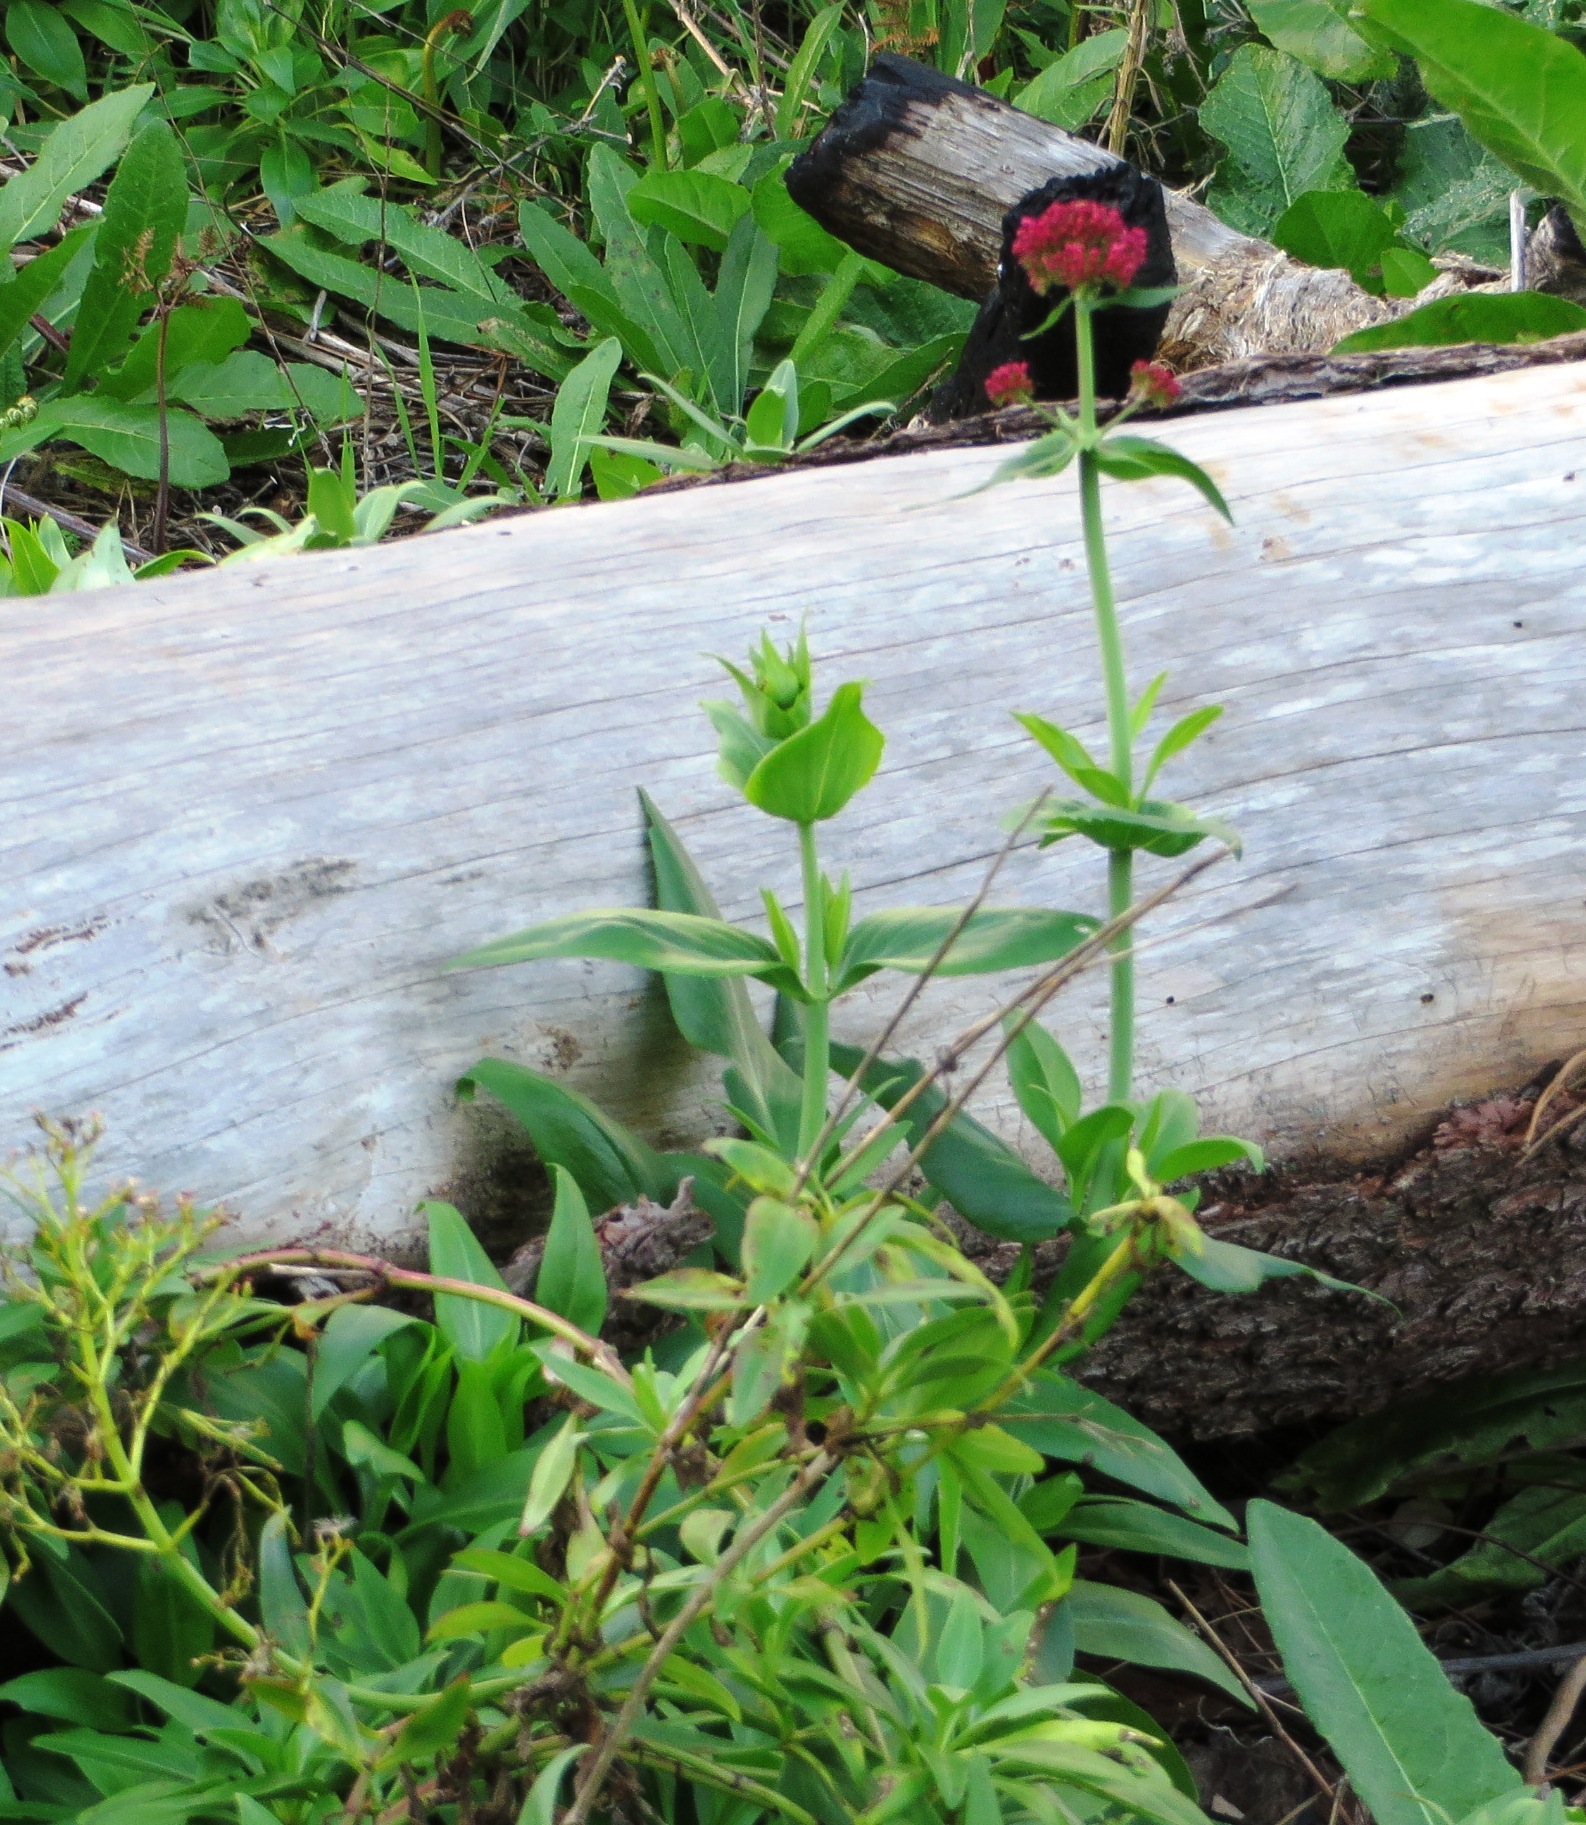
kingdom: Plantae
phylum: Tracheophyta
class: Magnoliopsida
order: Dipsacales
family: Caprifoliaceae
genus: Centranthus
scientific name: Centranthus ruber
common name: Red valerian
